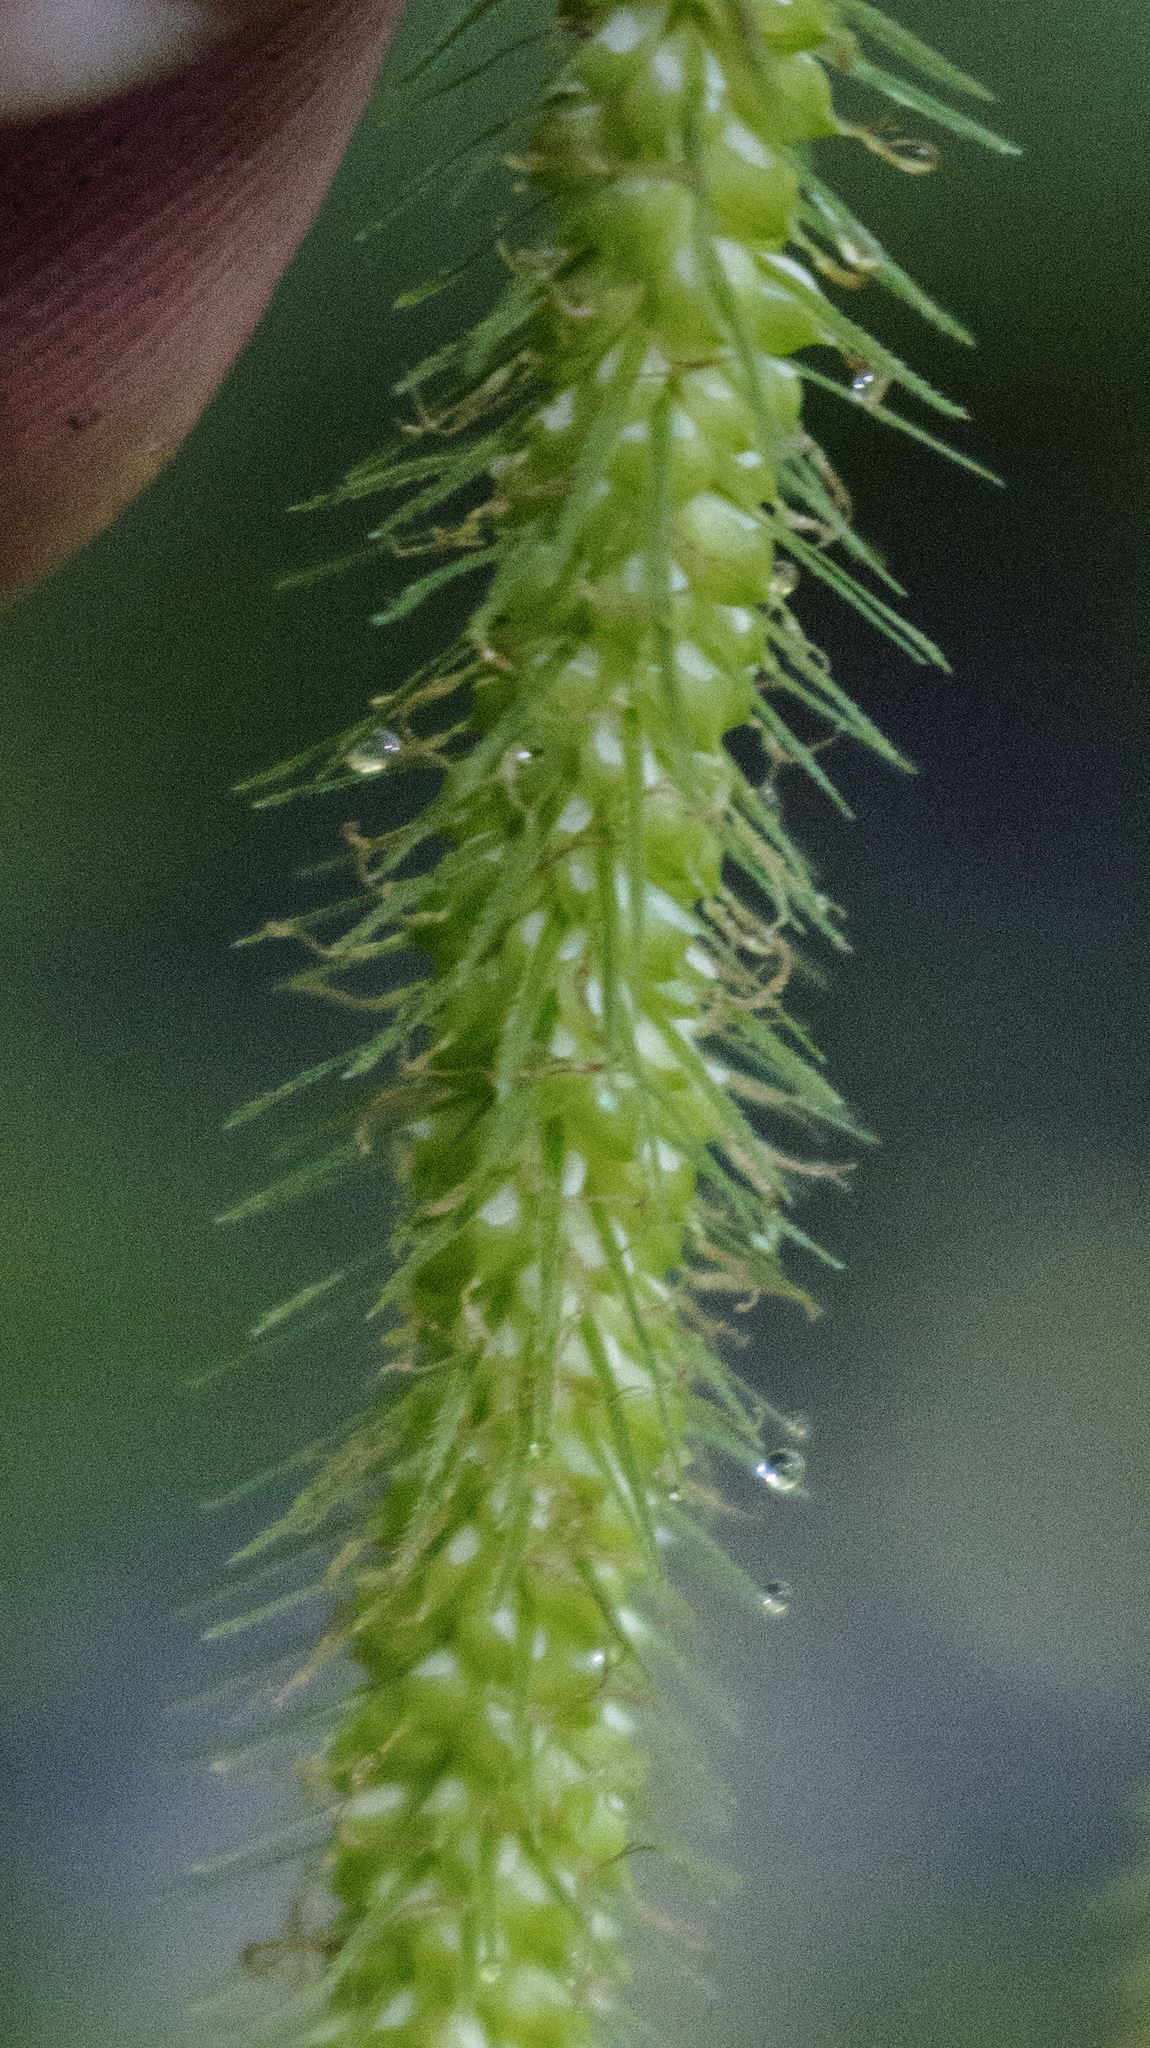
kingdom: Plantae
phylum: Tracheophyta
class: Liliopsida
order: Poales
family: Cyperaceae
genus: Carex
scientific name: Carex crinita
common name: Fringed sedge
